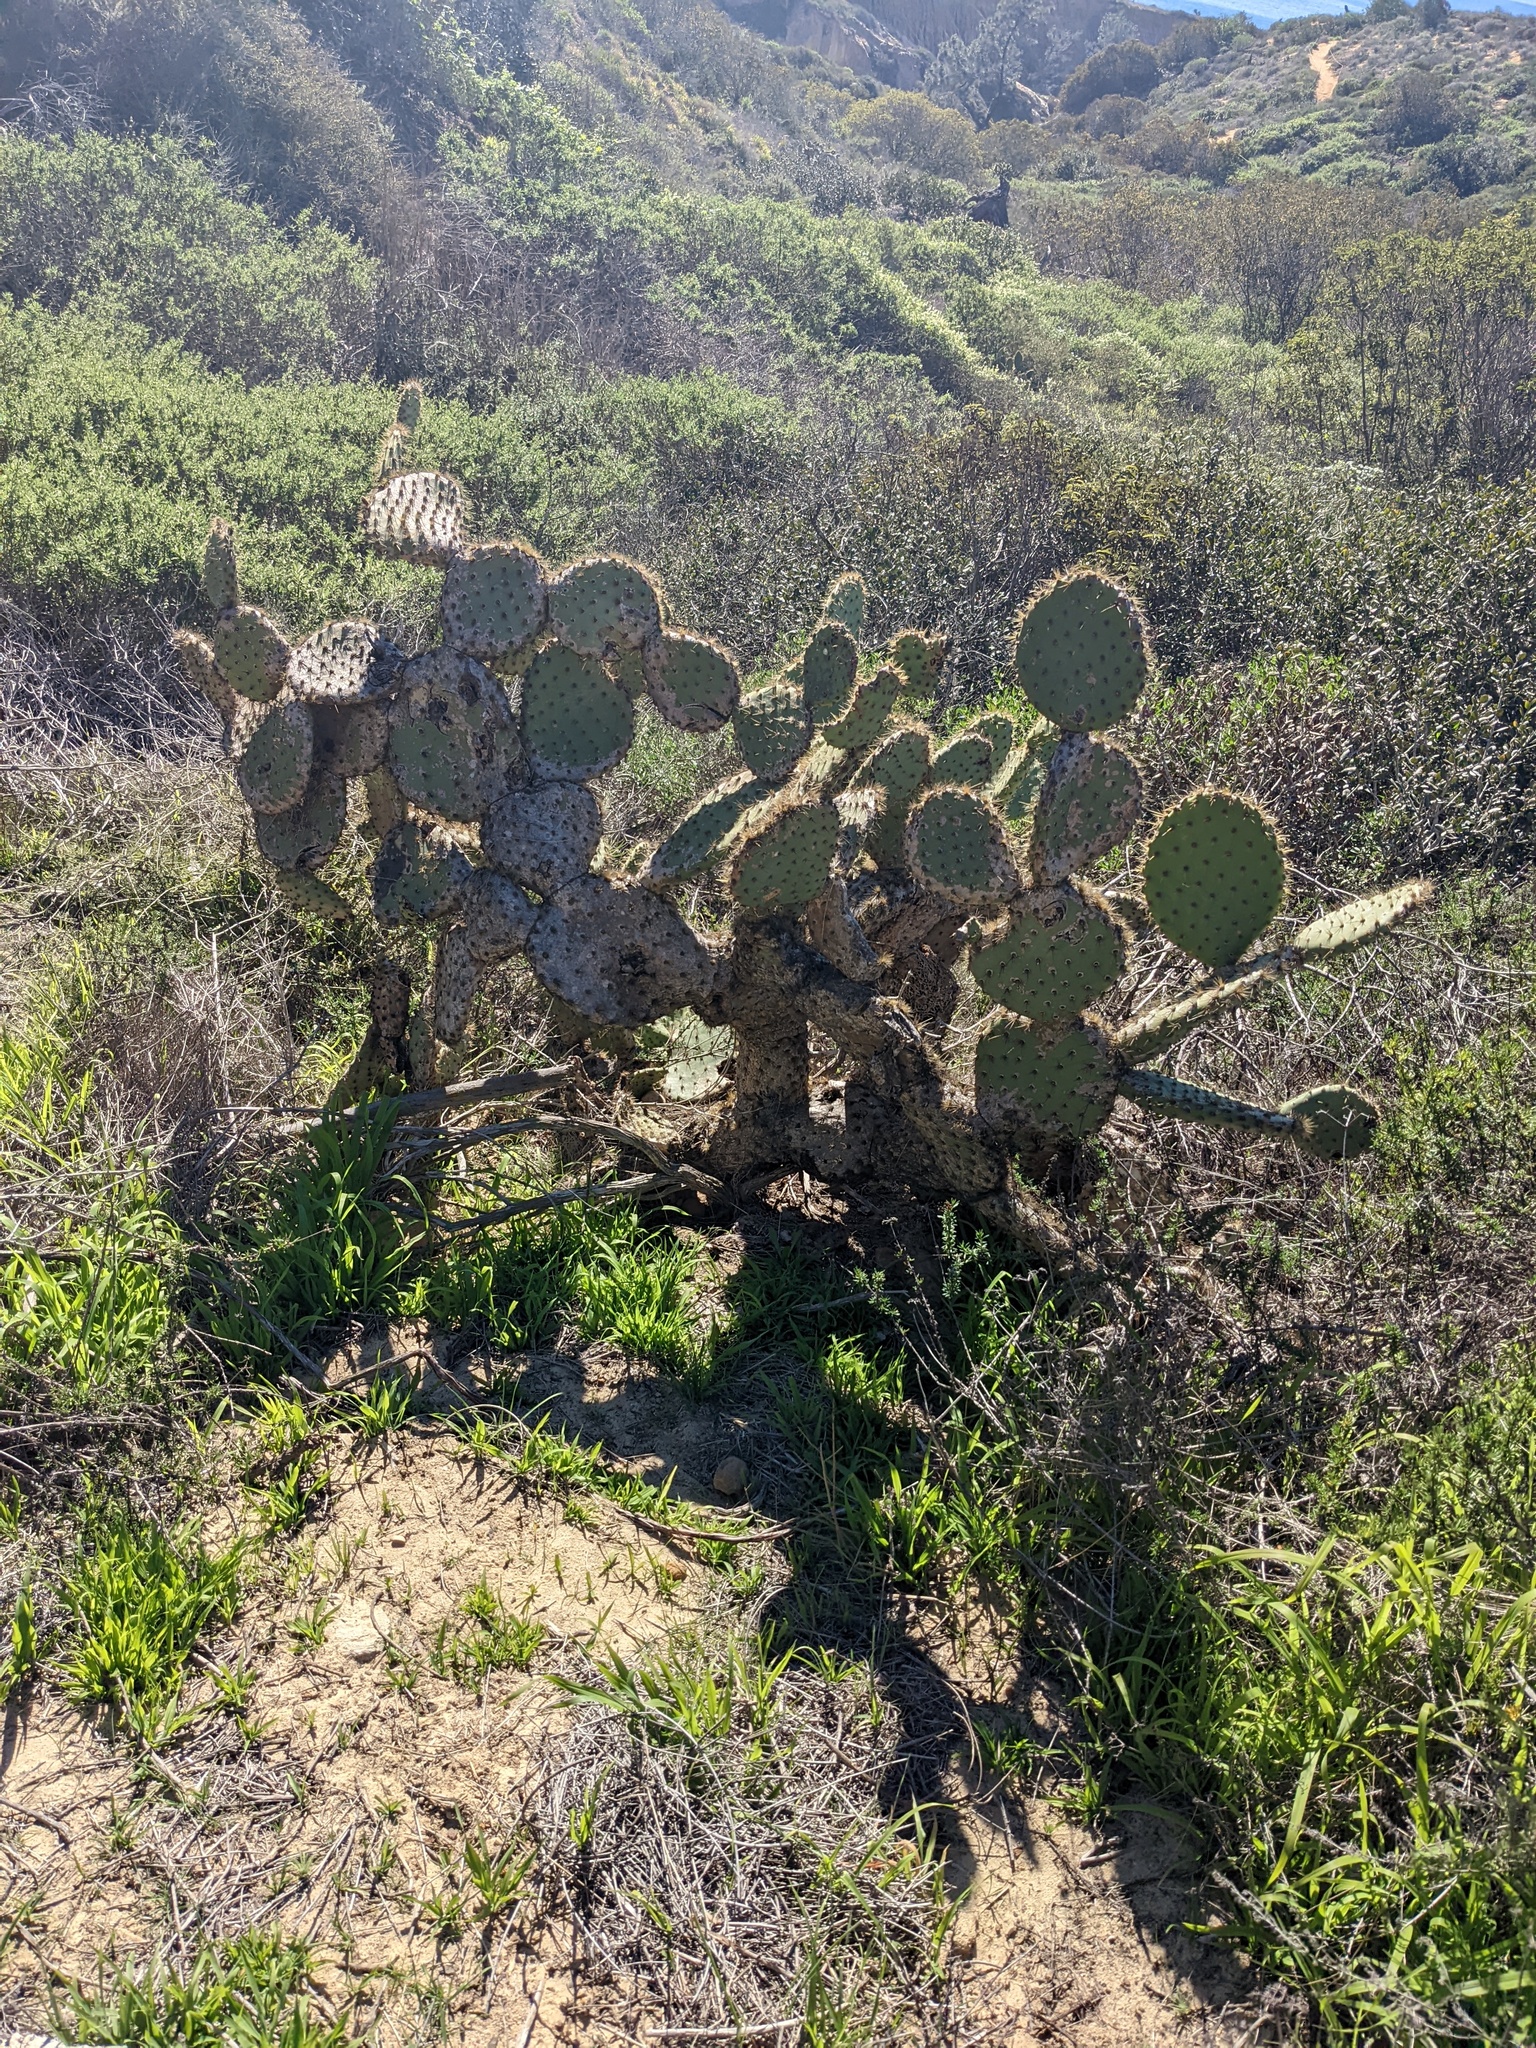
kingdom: Plantae
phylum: Tracheophyta
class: Magnoliopsida
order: Caryophyllales
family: Cactaceae
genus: Opuntia
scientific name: Opuntia oricola
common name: Chaparral prickly-pear
